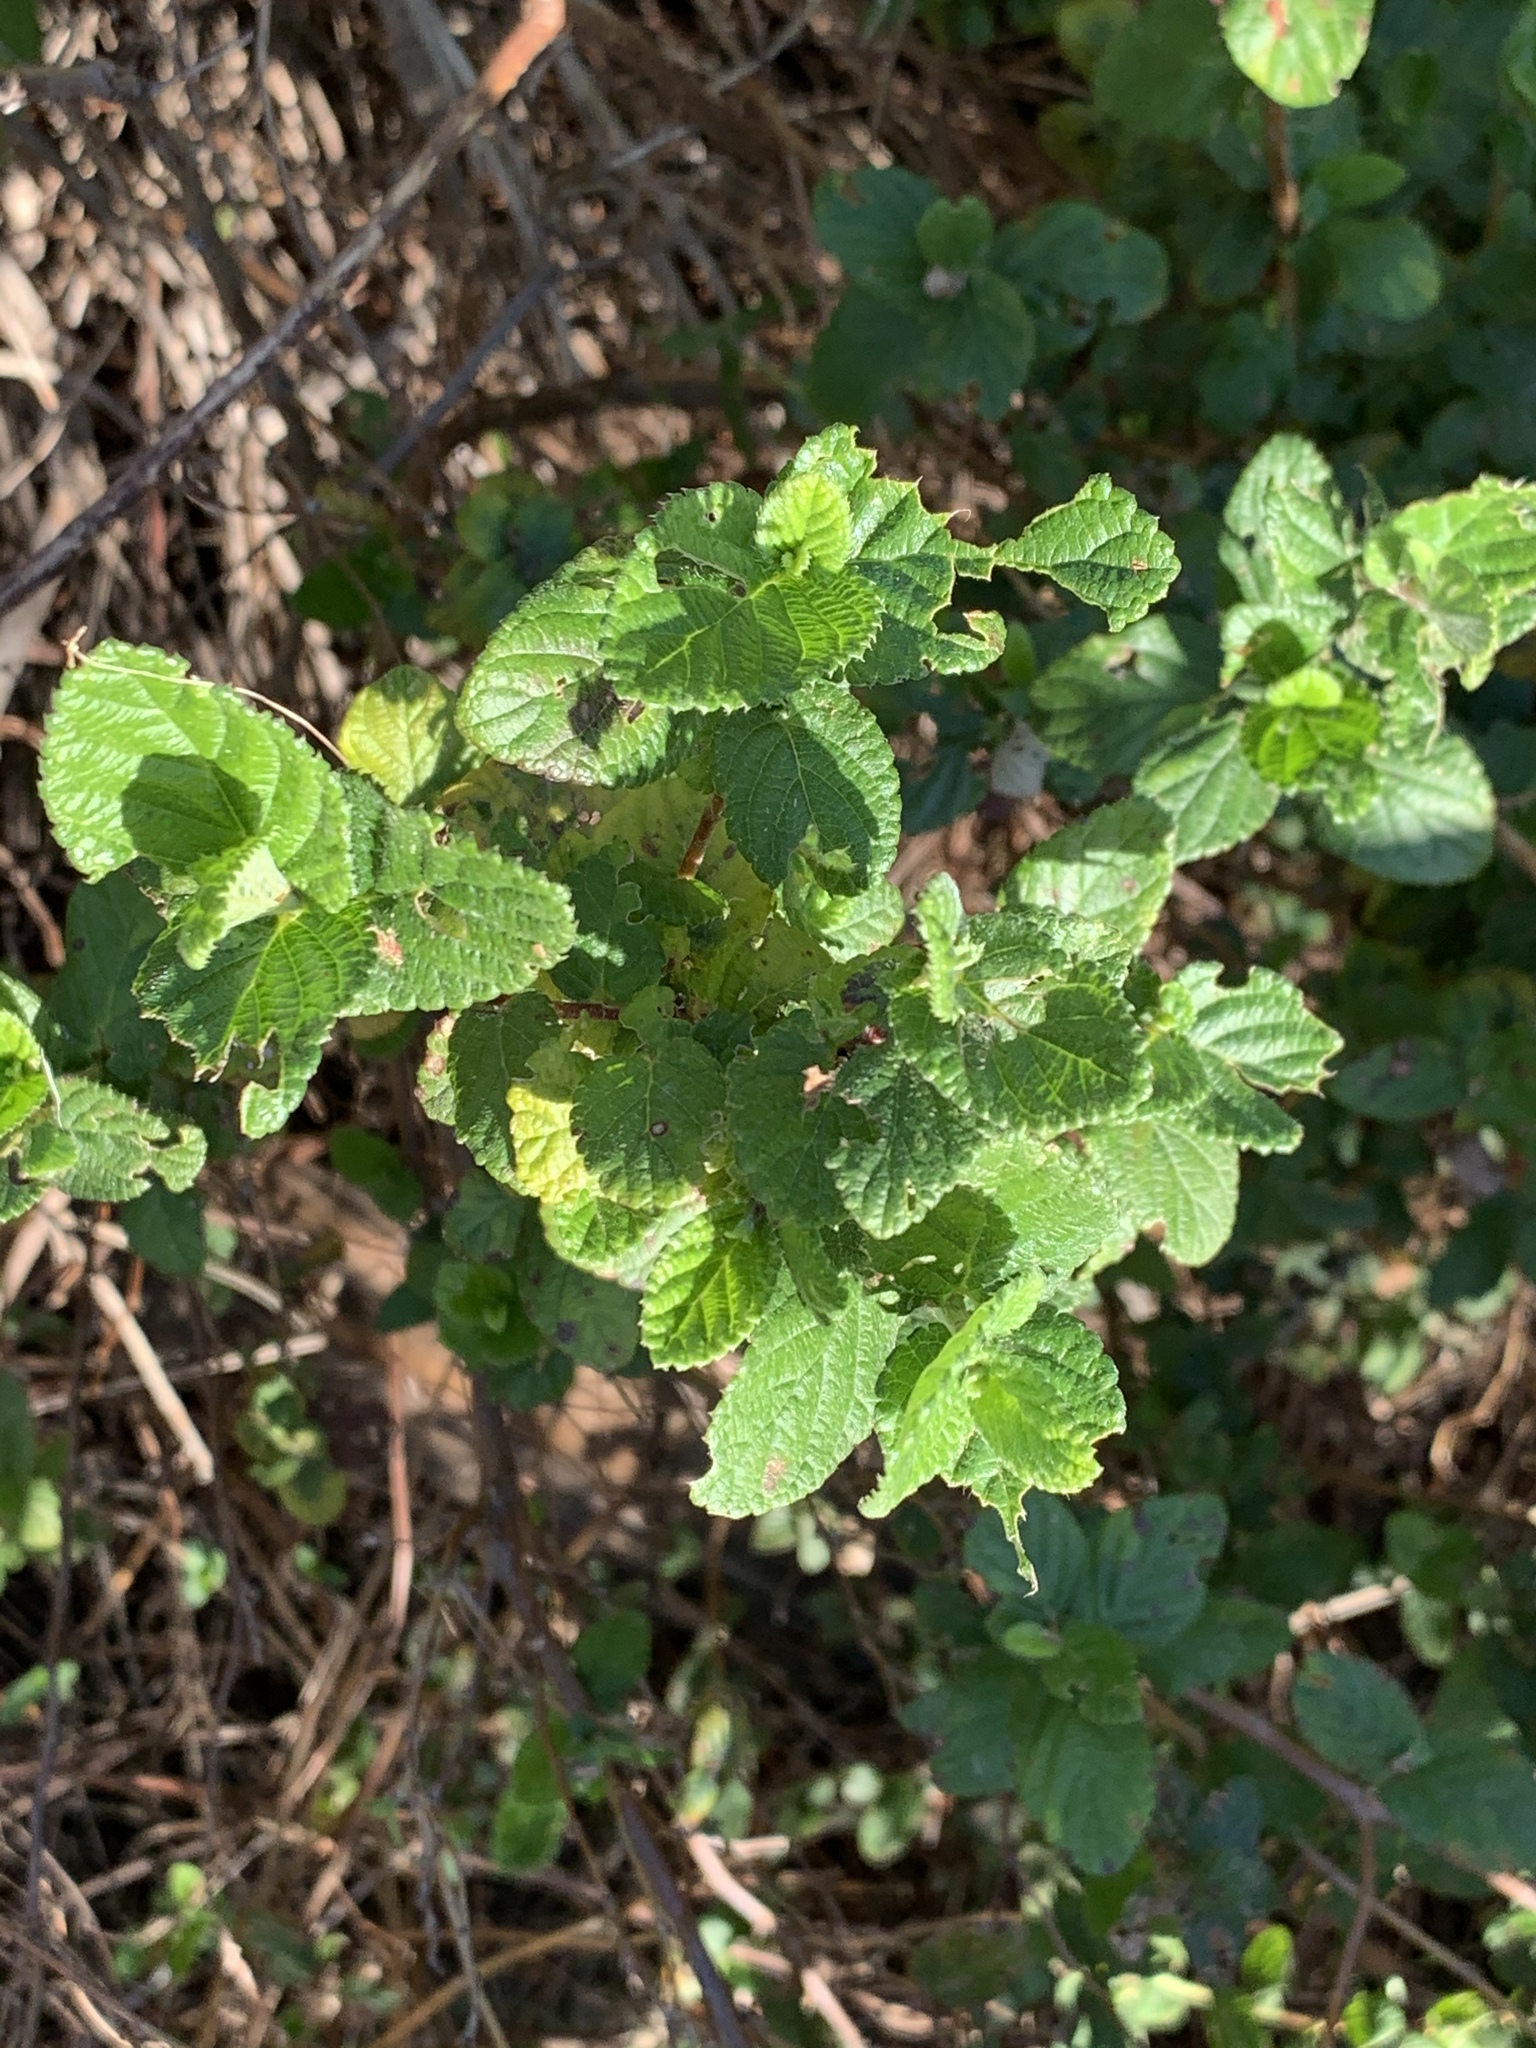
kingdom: Plantae
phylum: Tracheophyta
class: Magnoliopsida
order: Rosales
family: Rosaceae
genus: Cliffortia
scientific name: Cliffortia odorata
